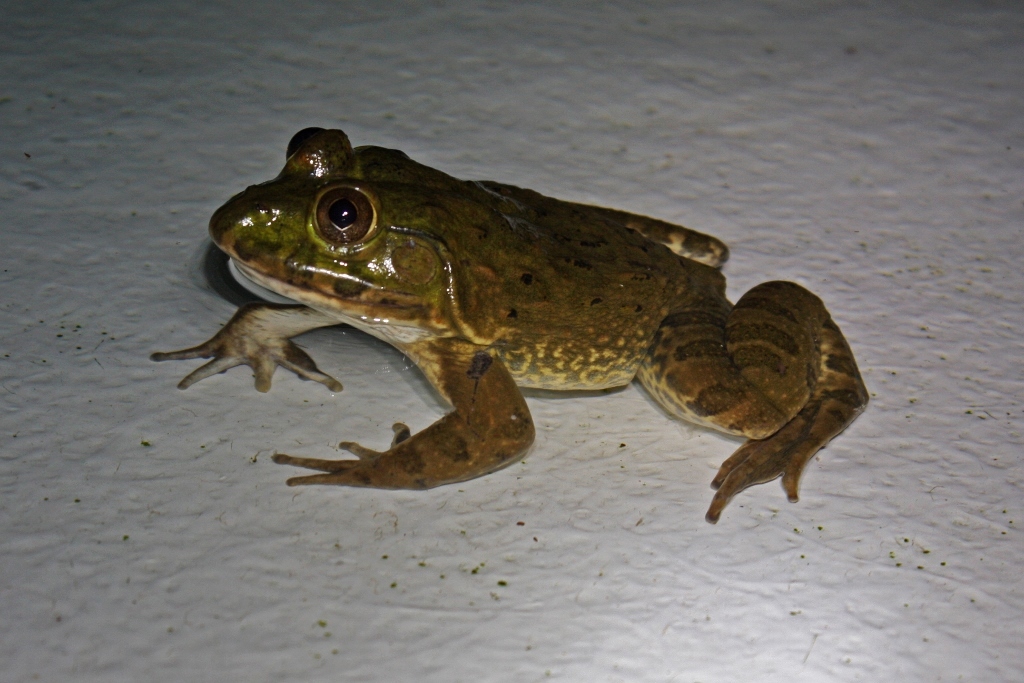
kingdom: Animalia
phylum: Chordata
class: Amphibia
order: Anura
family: Dicroglossidae
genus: Hoplobatrachus
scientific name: Hoplobatrachus occipitalis
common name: Eastern groove-crowned bullfrog
